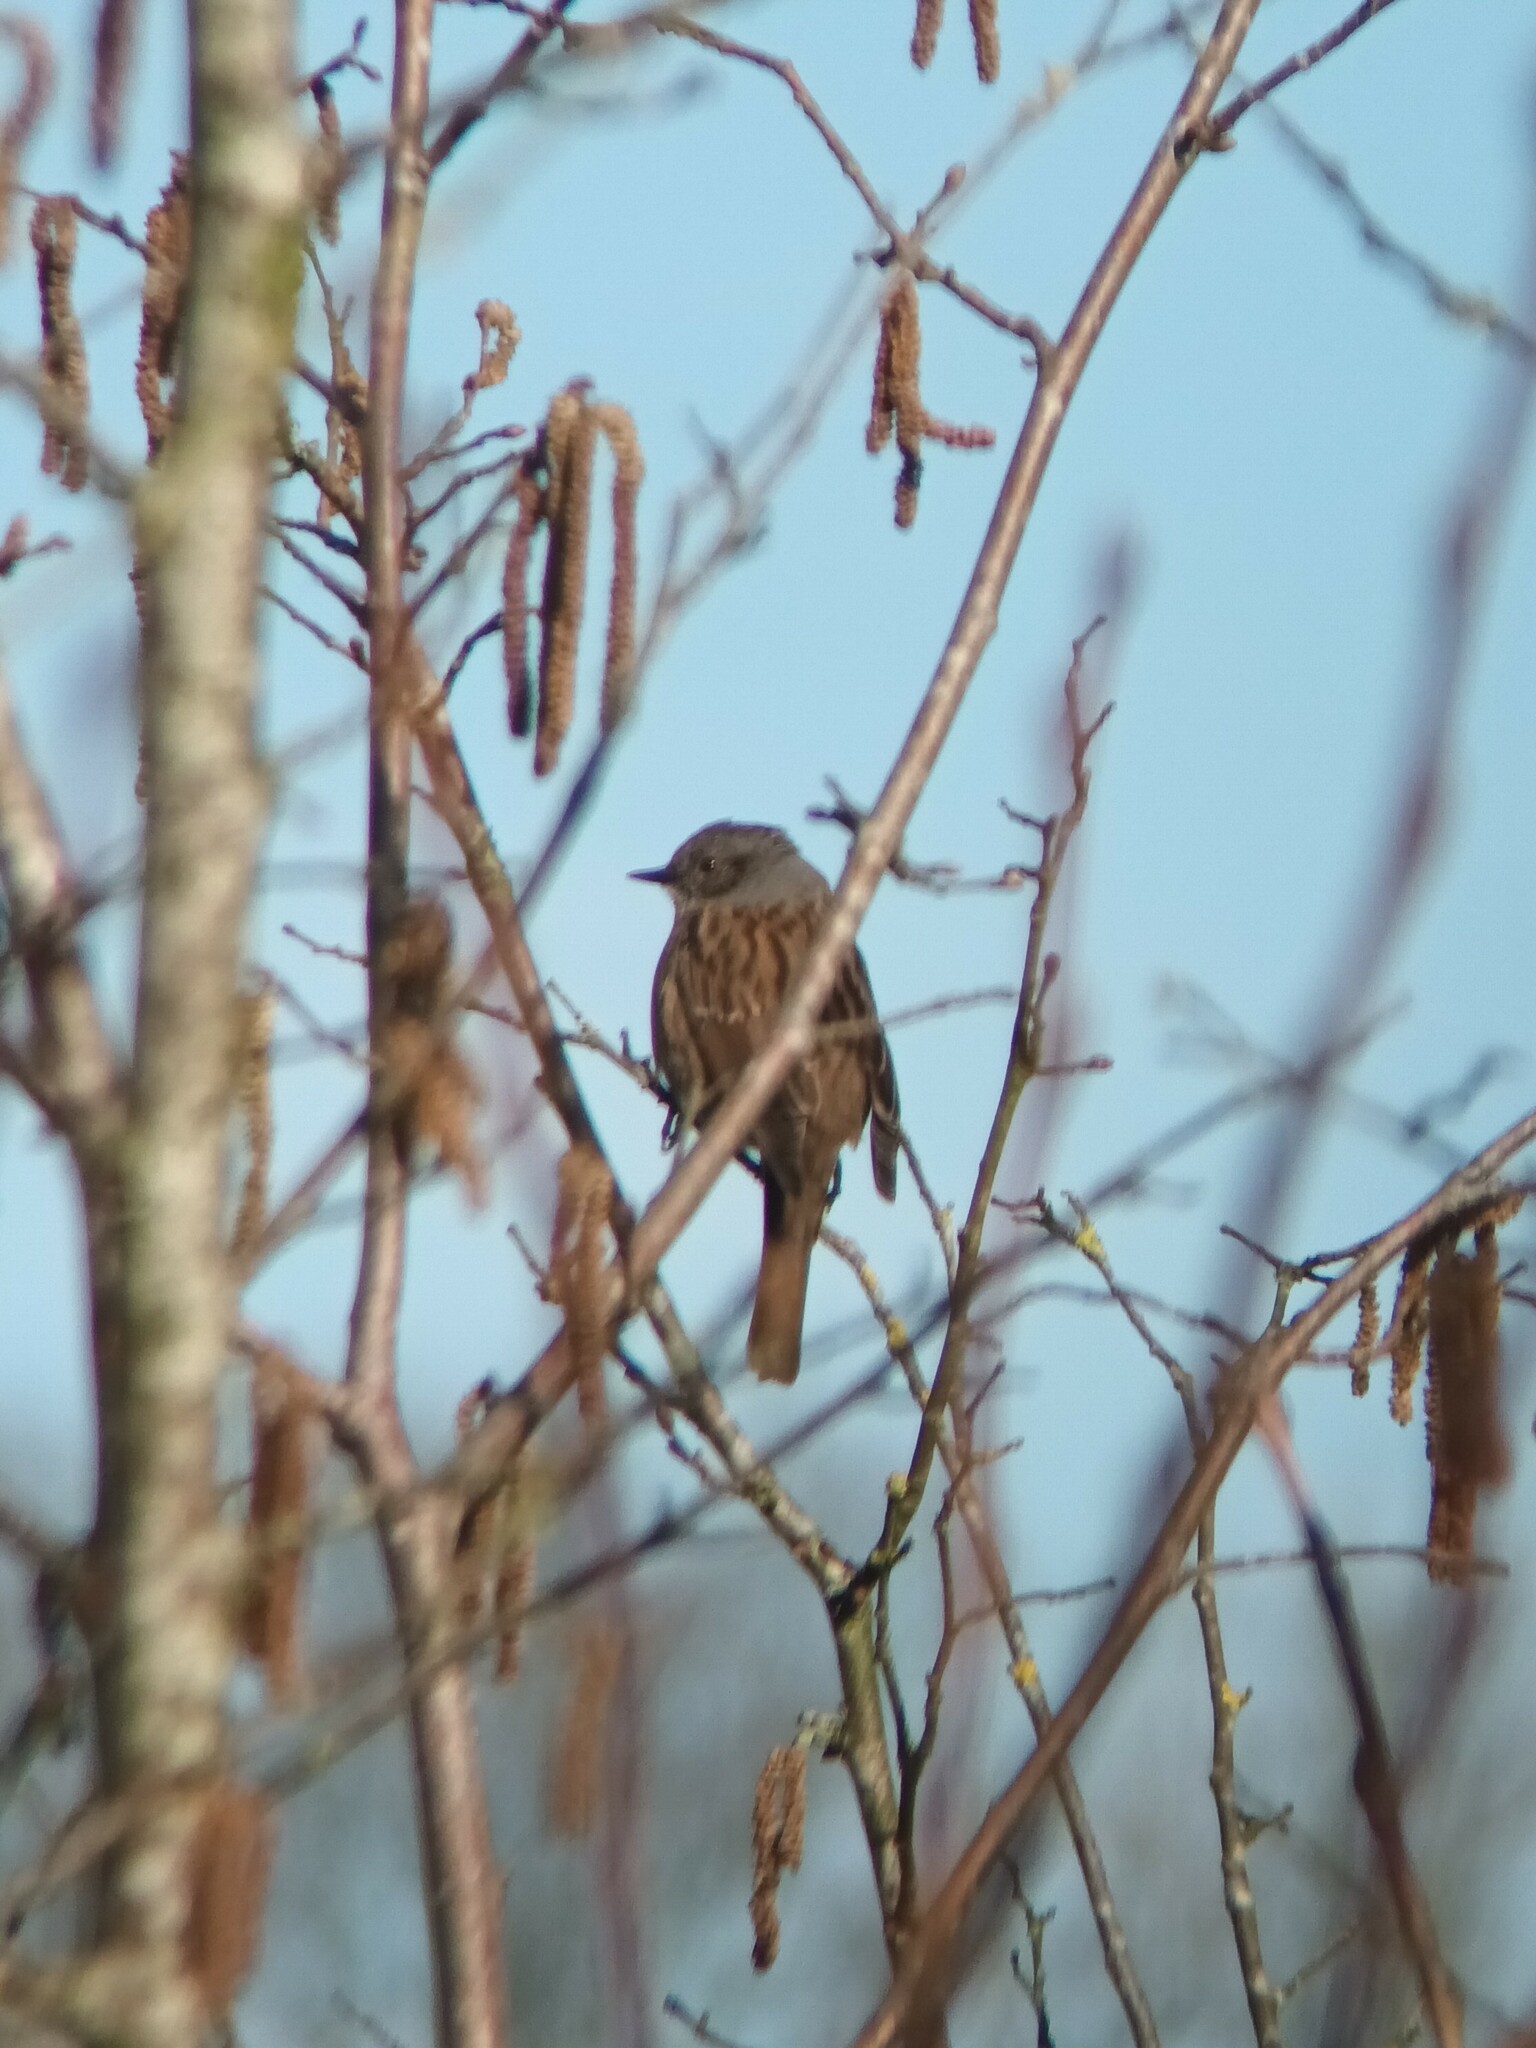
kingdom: Animalia
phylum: Chordata
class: Aves
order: Passeriformes
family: Prunellidae
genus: Prunella
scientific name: Prunella modularis
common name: Dunnock
